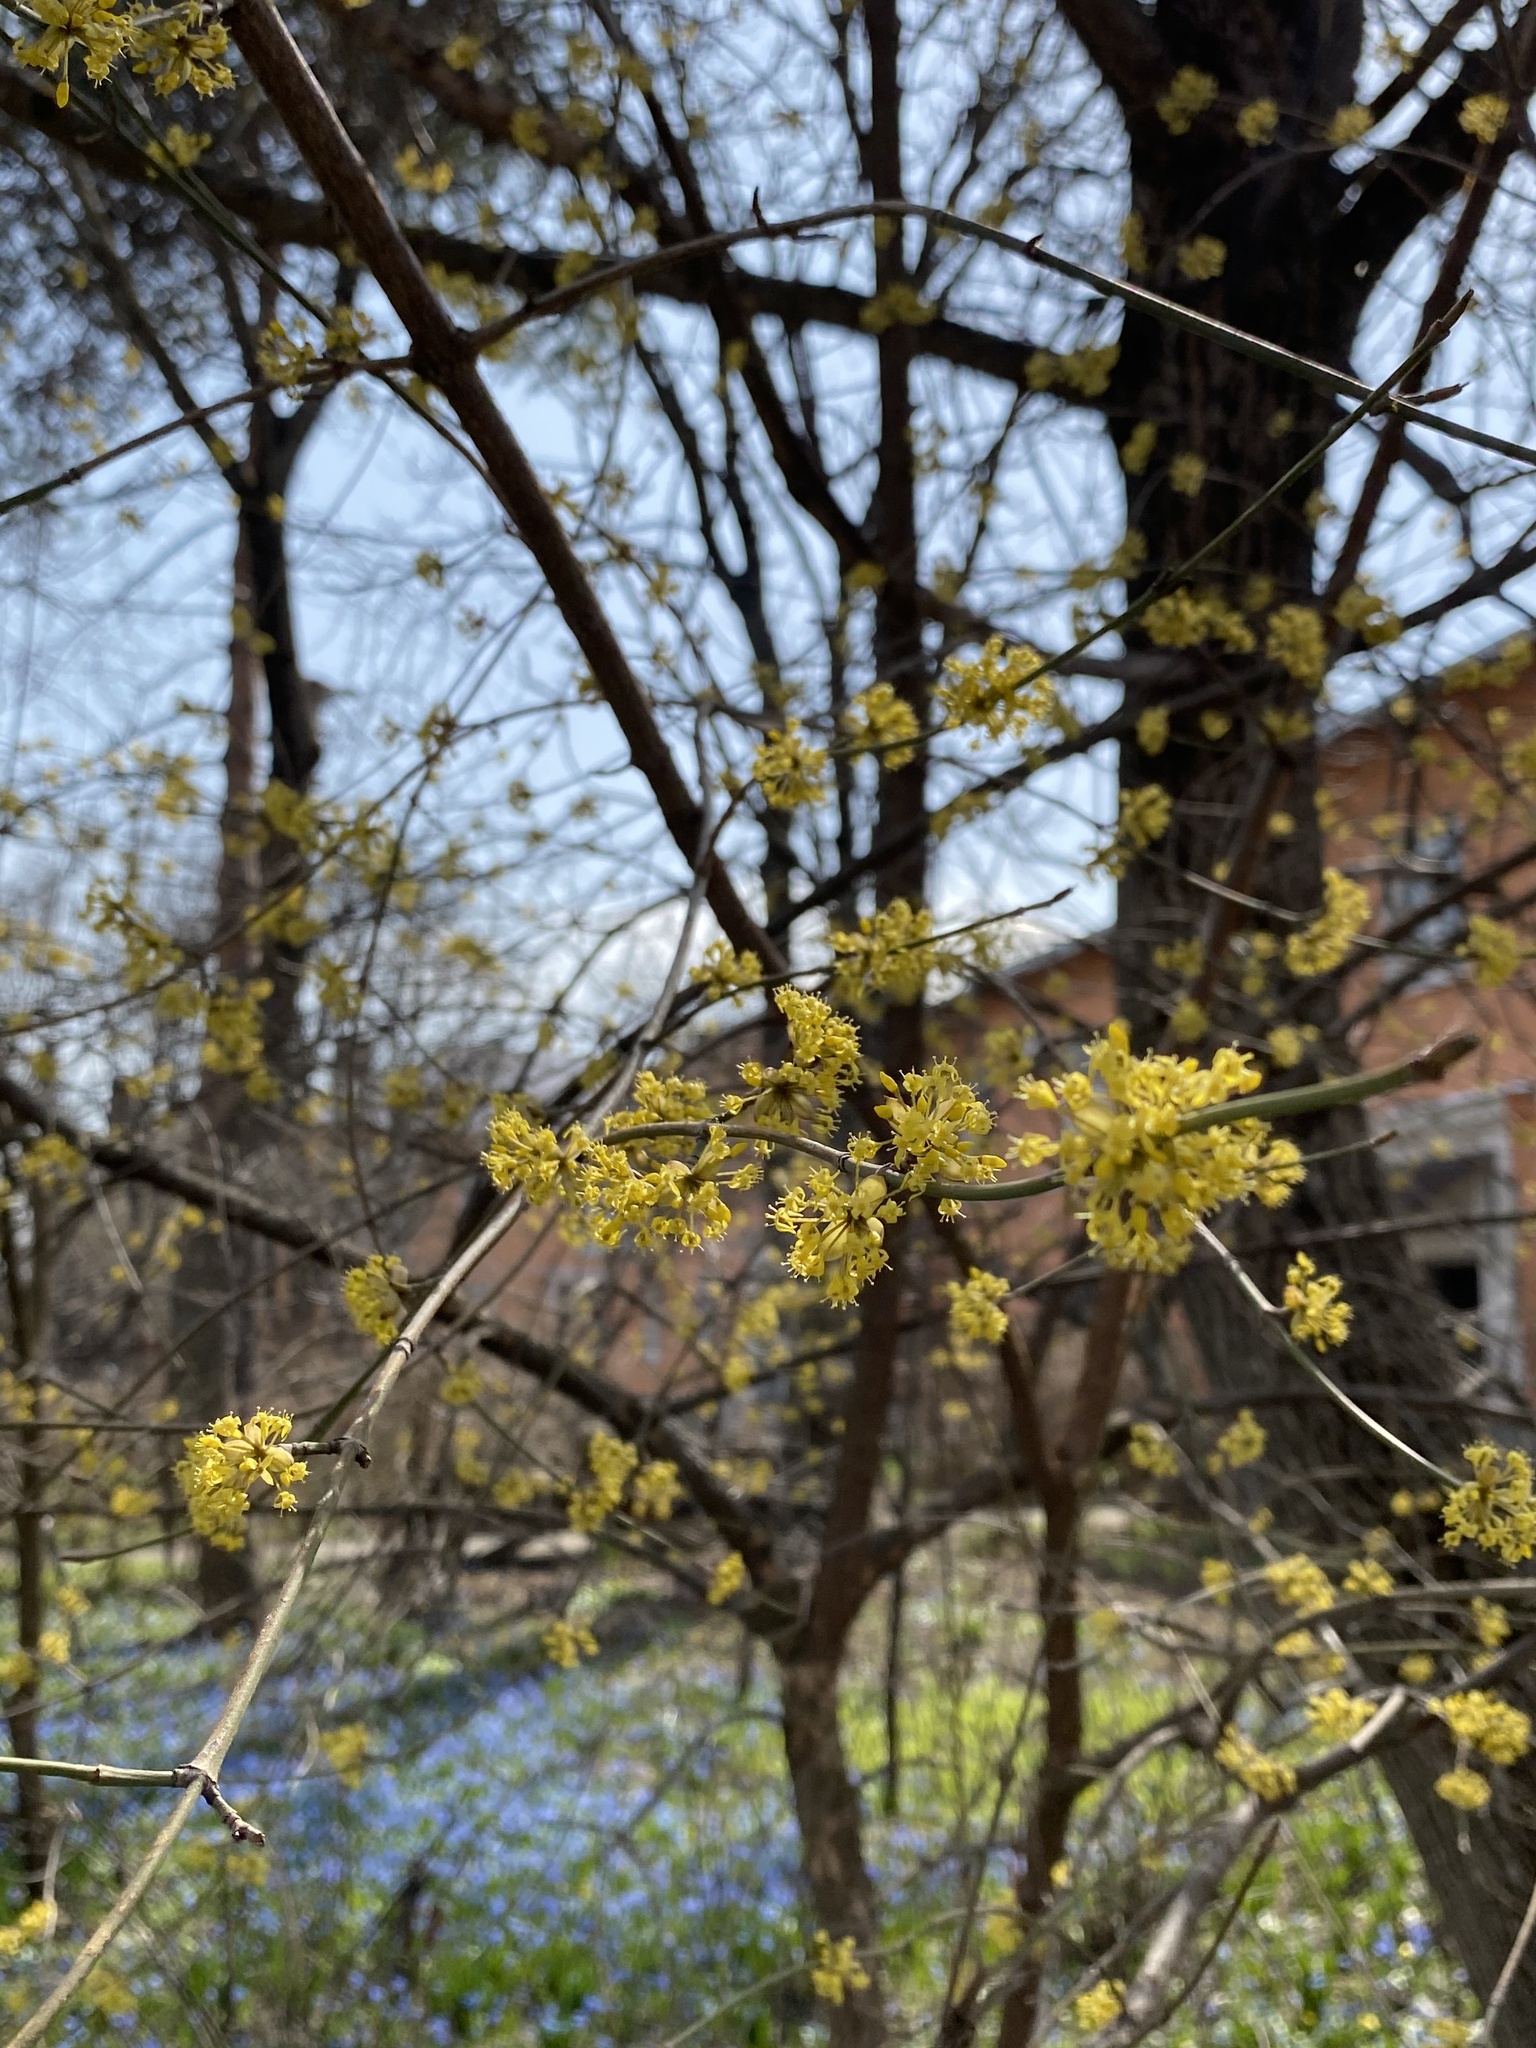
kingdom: Plantae
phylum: Tracheophyta
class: Magnoliopsida
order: Cornales
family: Cornaceae
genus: Cornus
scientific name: Cornus mas
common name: Cornelian-cherry
